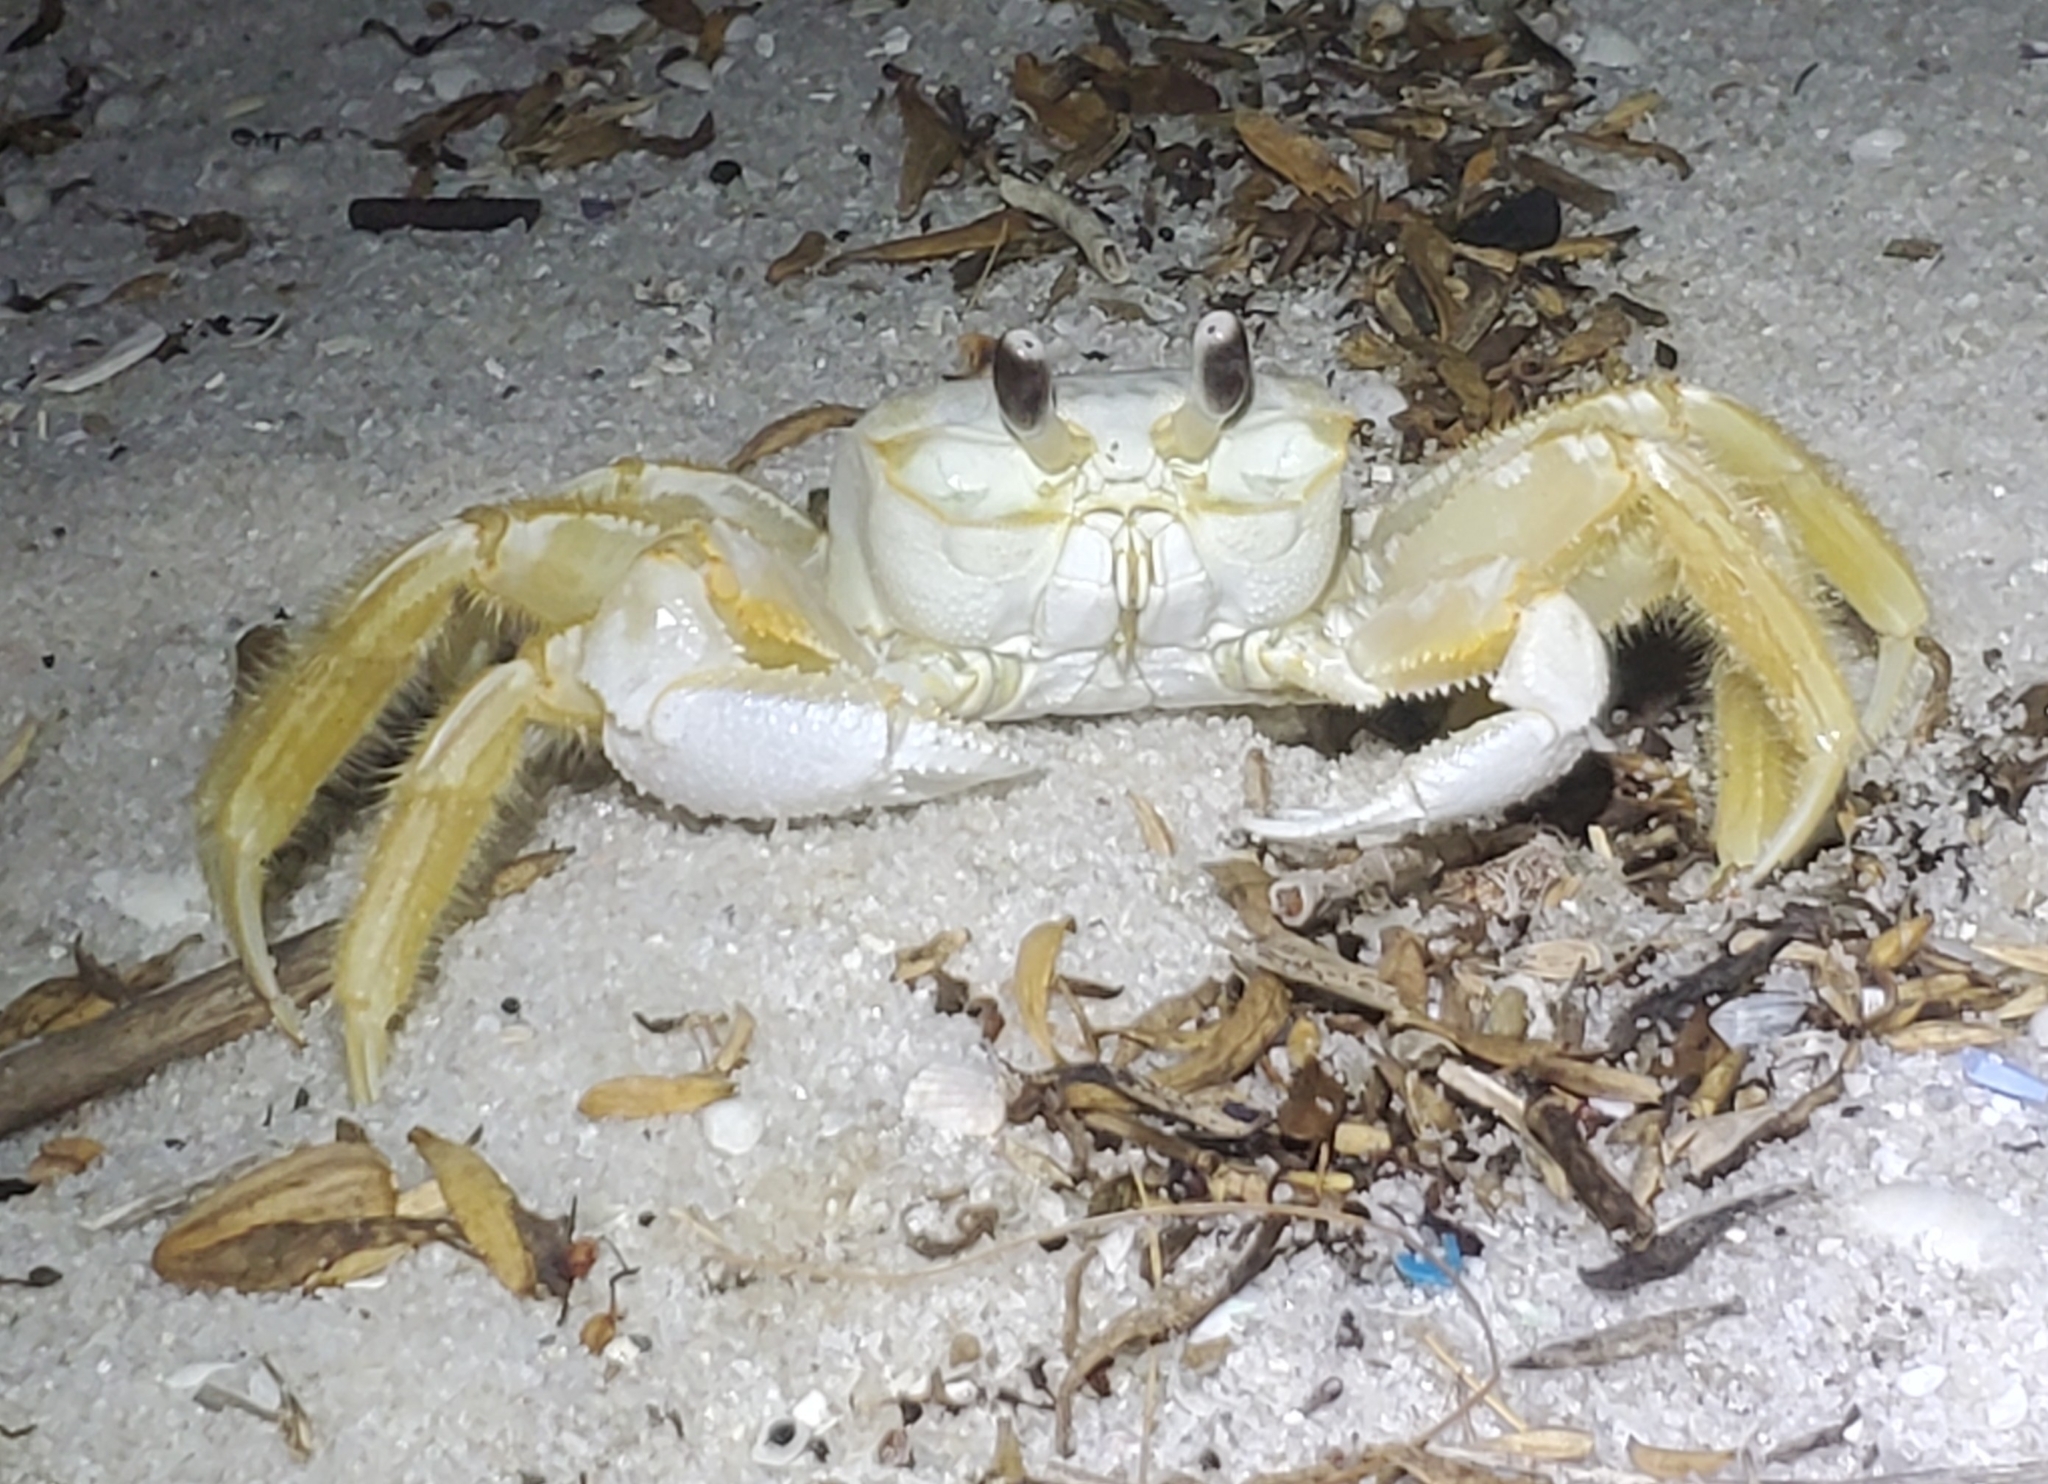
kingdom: Animalia
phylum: Arthropoda
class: Malacostraca
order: Decapoda
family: Ocypodidae
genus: Ocypode
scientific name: Ocypode quadrata
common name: Ghost crab
